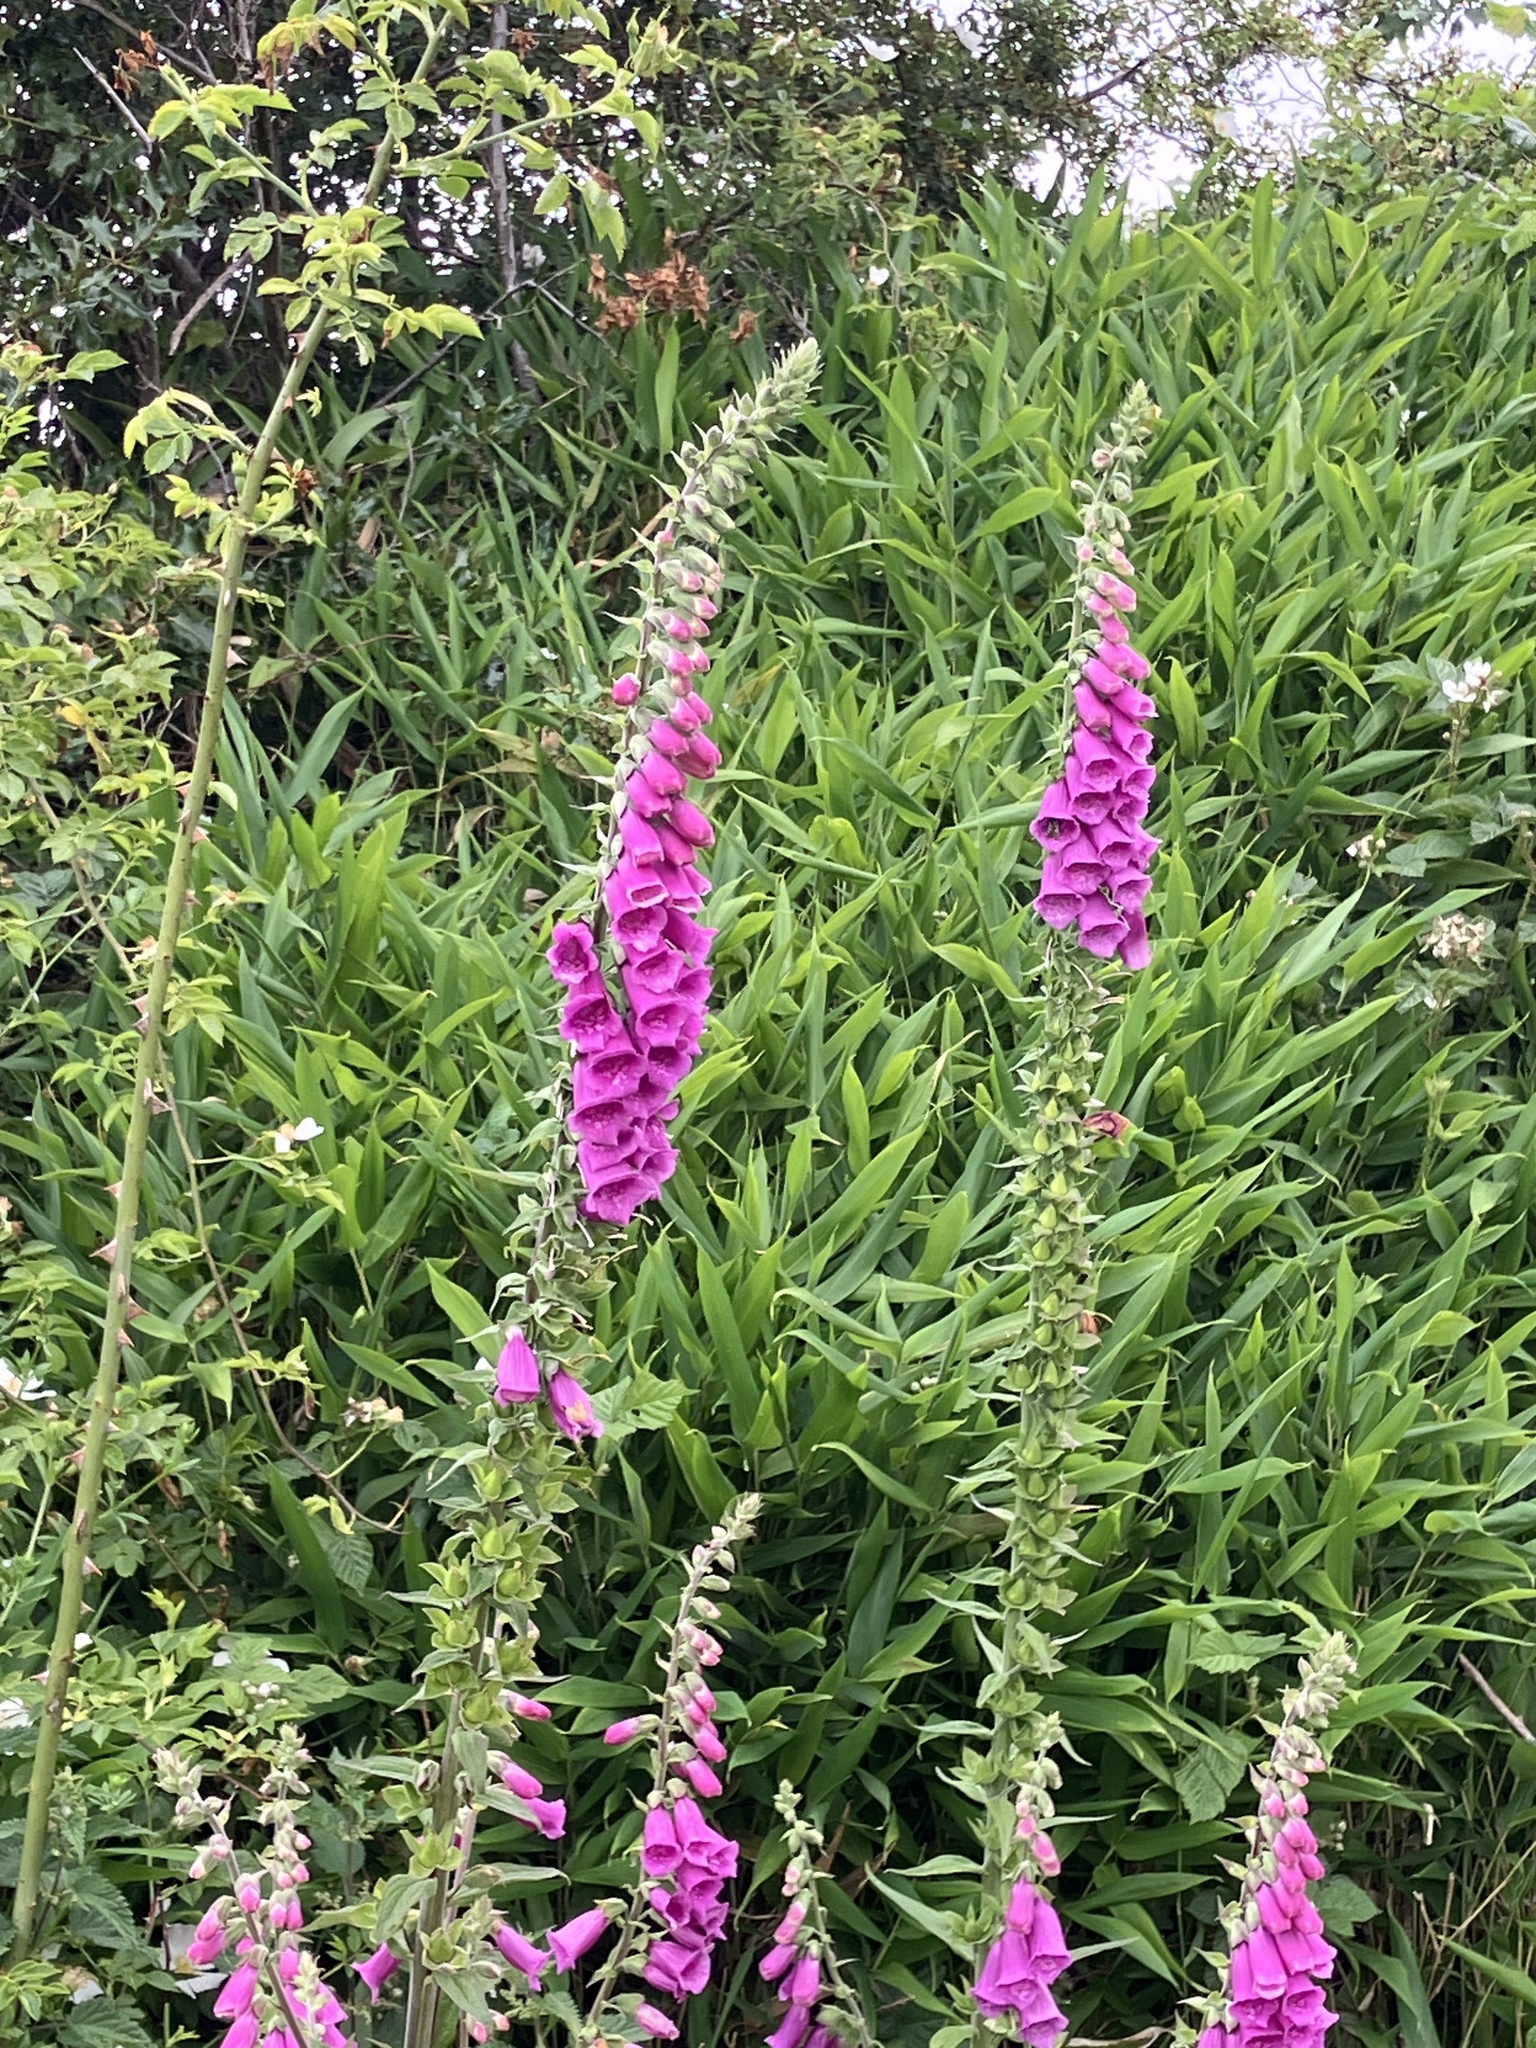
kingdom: Plantae
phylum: Tracheophyta
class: Magnoliopsida
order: Lamiales
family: Plantaginaceae
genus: Digitalis
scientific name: Digitalis purpurea
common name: Foxglove
